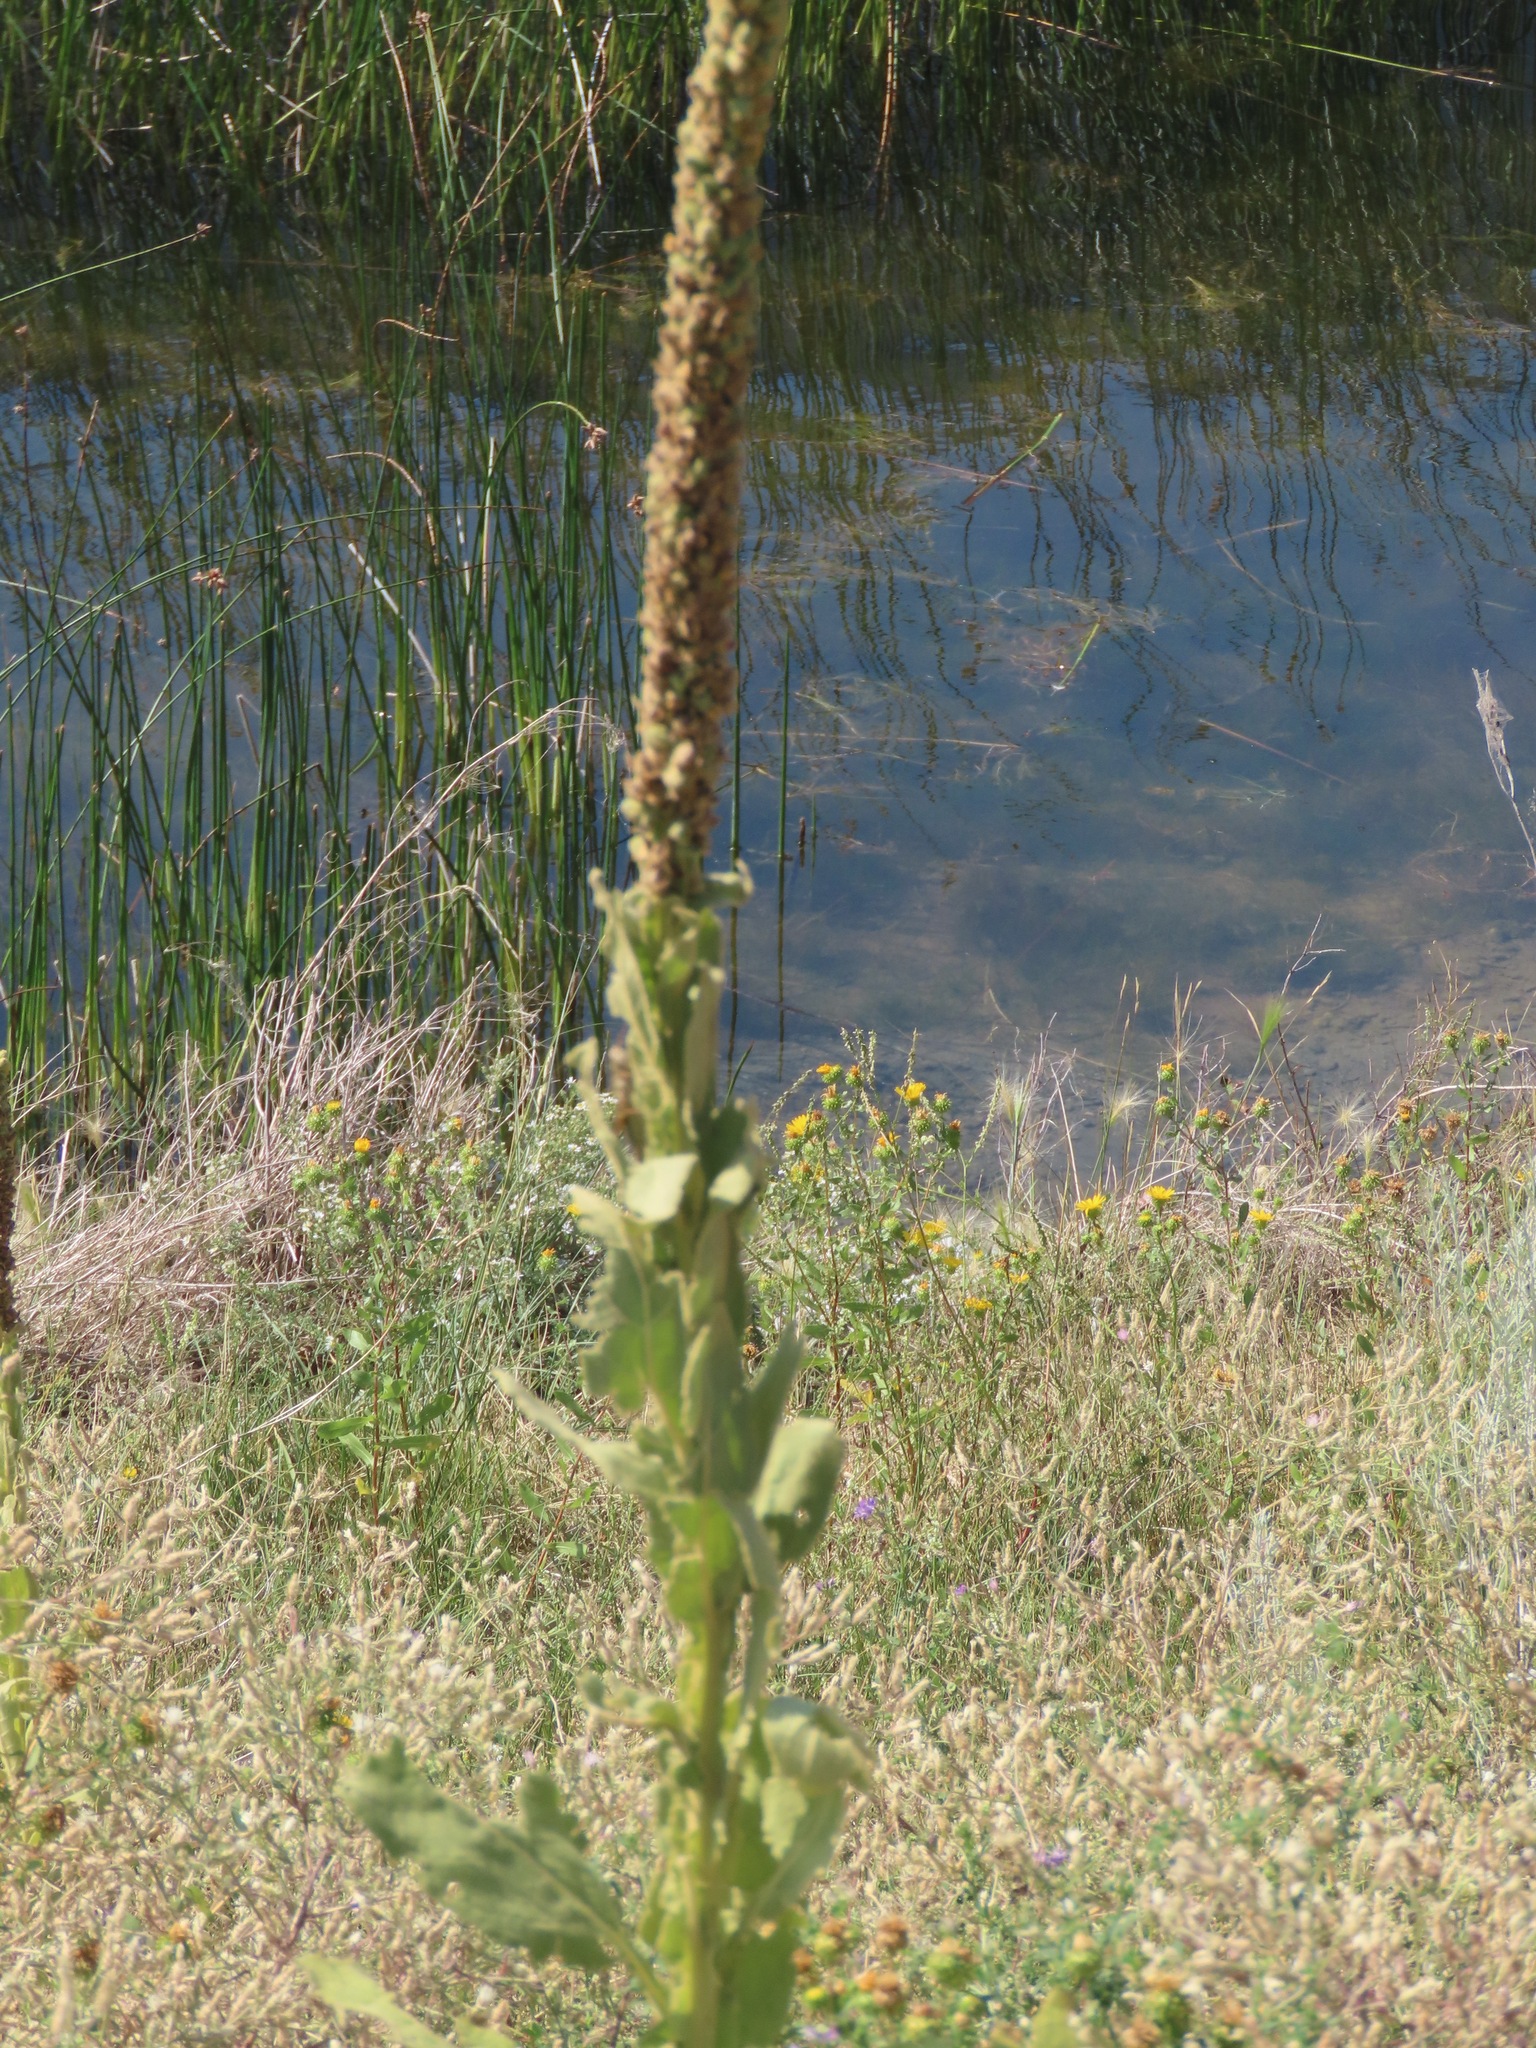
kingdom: Plantae
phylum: Tracheophyta
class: Magnoliopsida
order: Lamiales
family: Scrophulariaceae
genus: Verbascum
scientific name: Verbascum thapsus
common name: Common mullein
